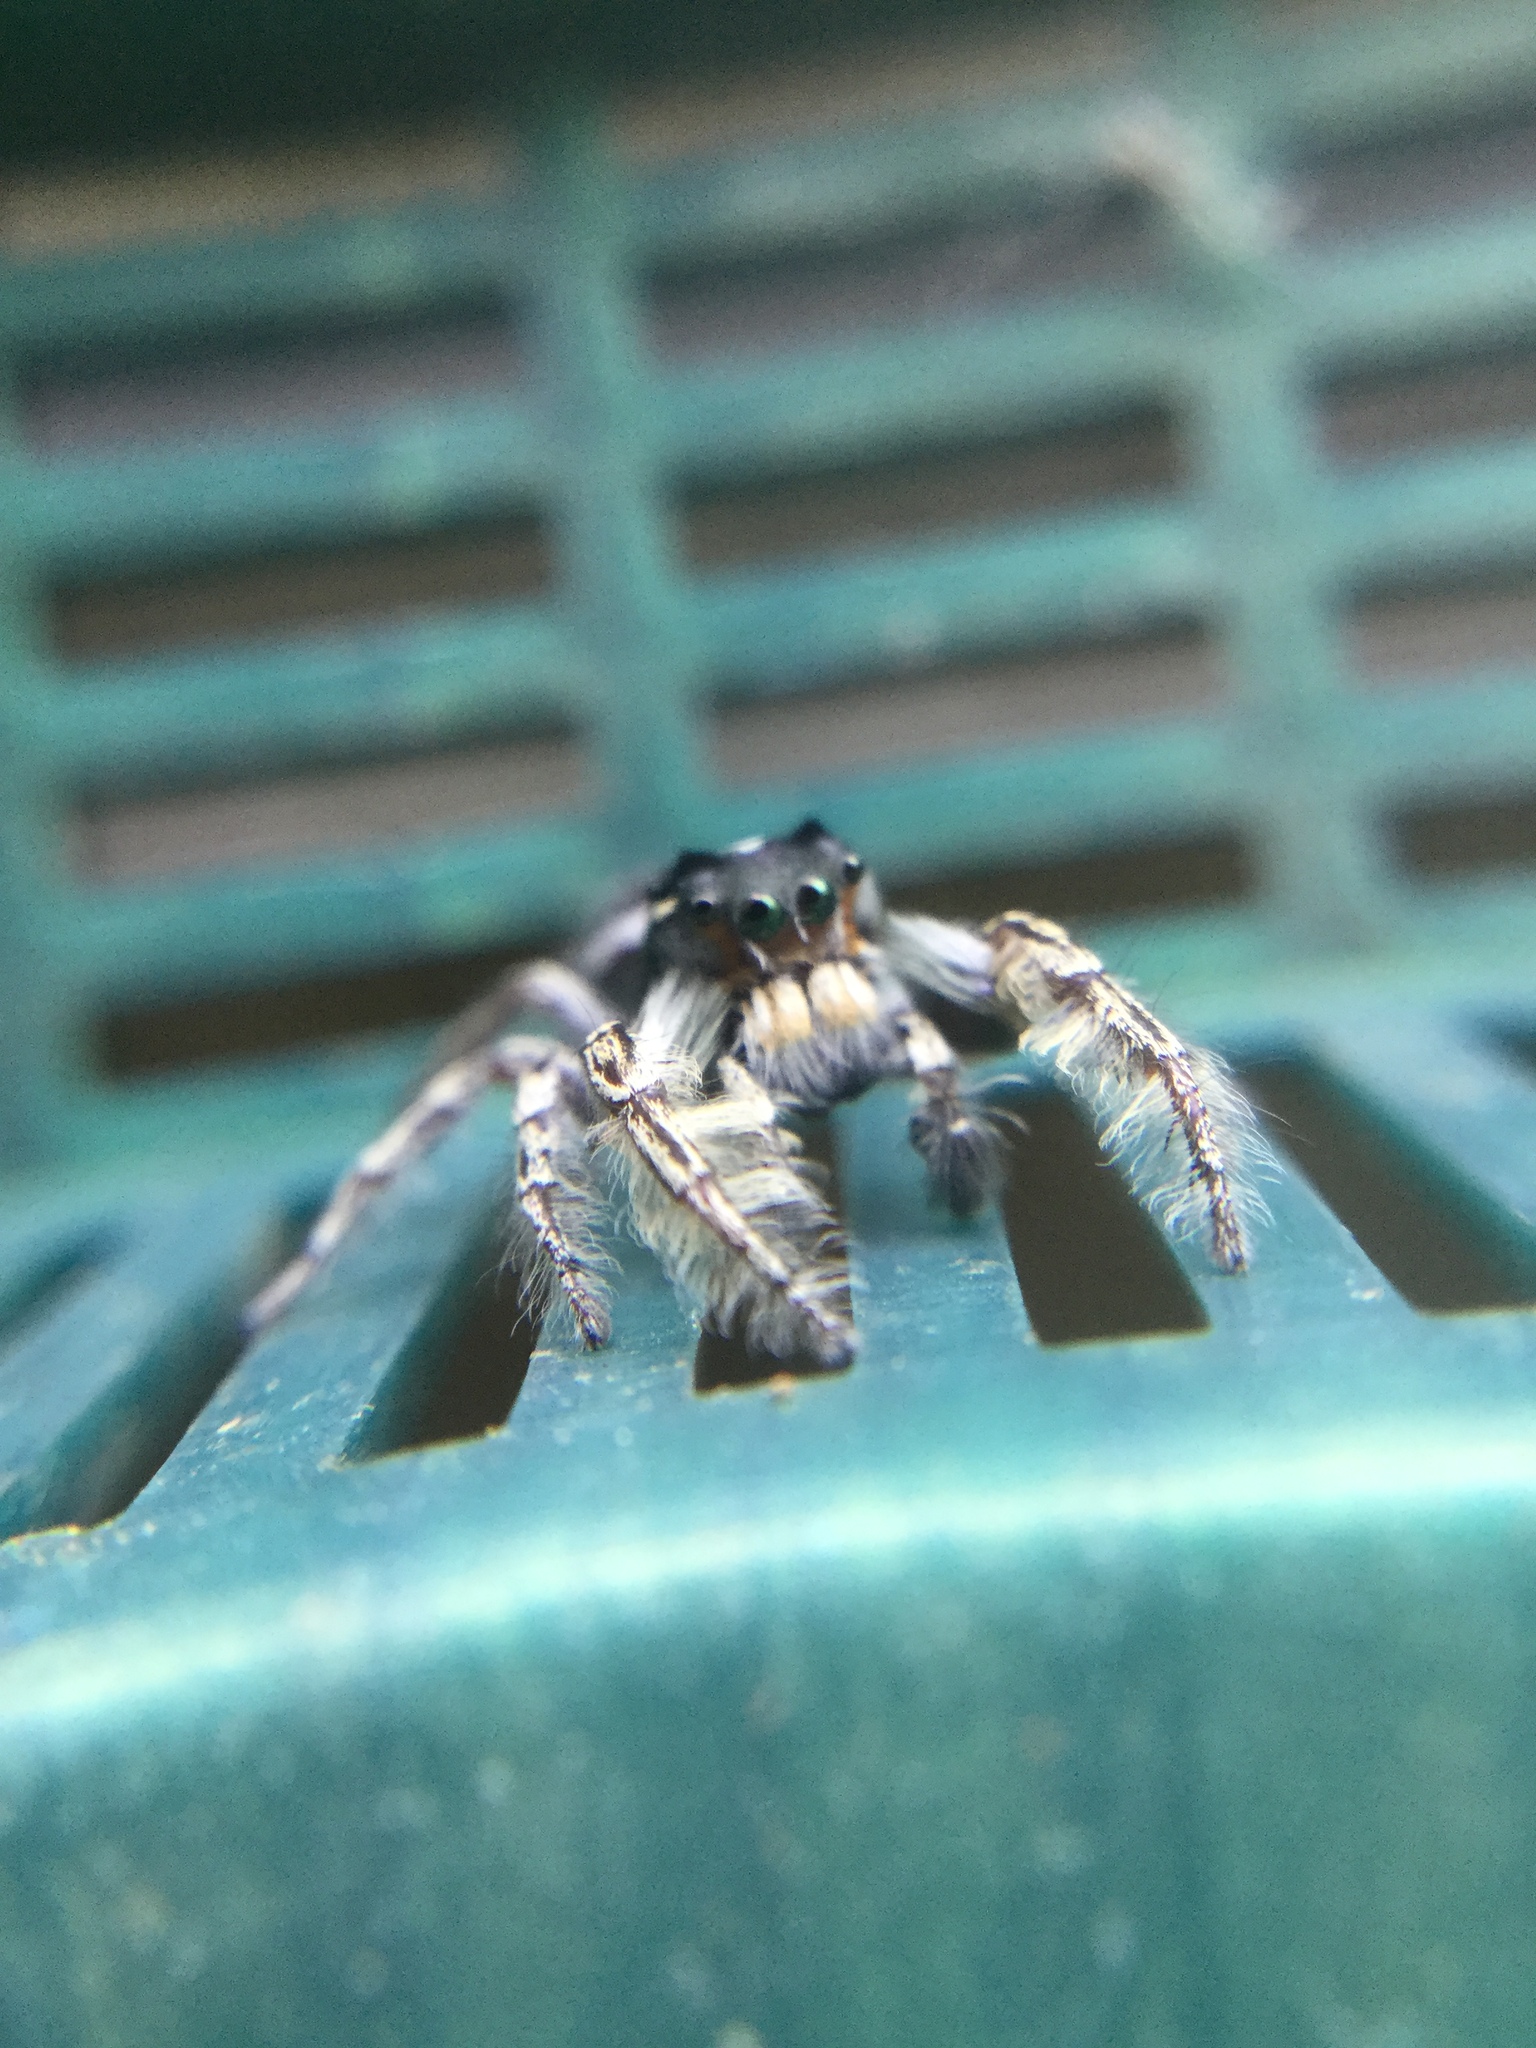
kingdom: Animalia
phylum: Arthropoda
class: Arachnida
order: Araneae
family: Salticidae
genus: Phidippus
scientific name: Phidippus putnami
